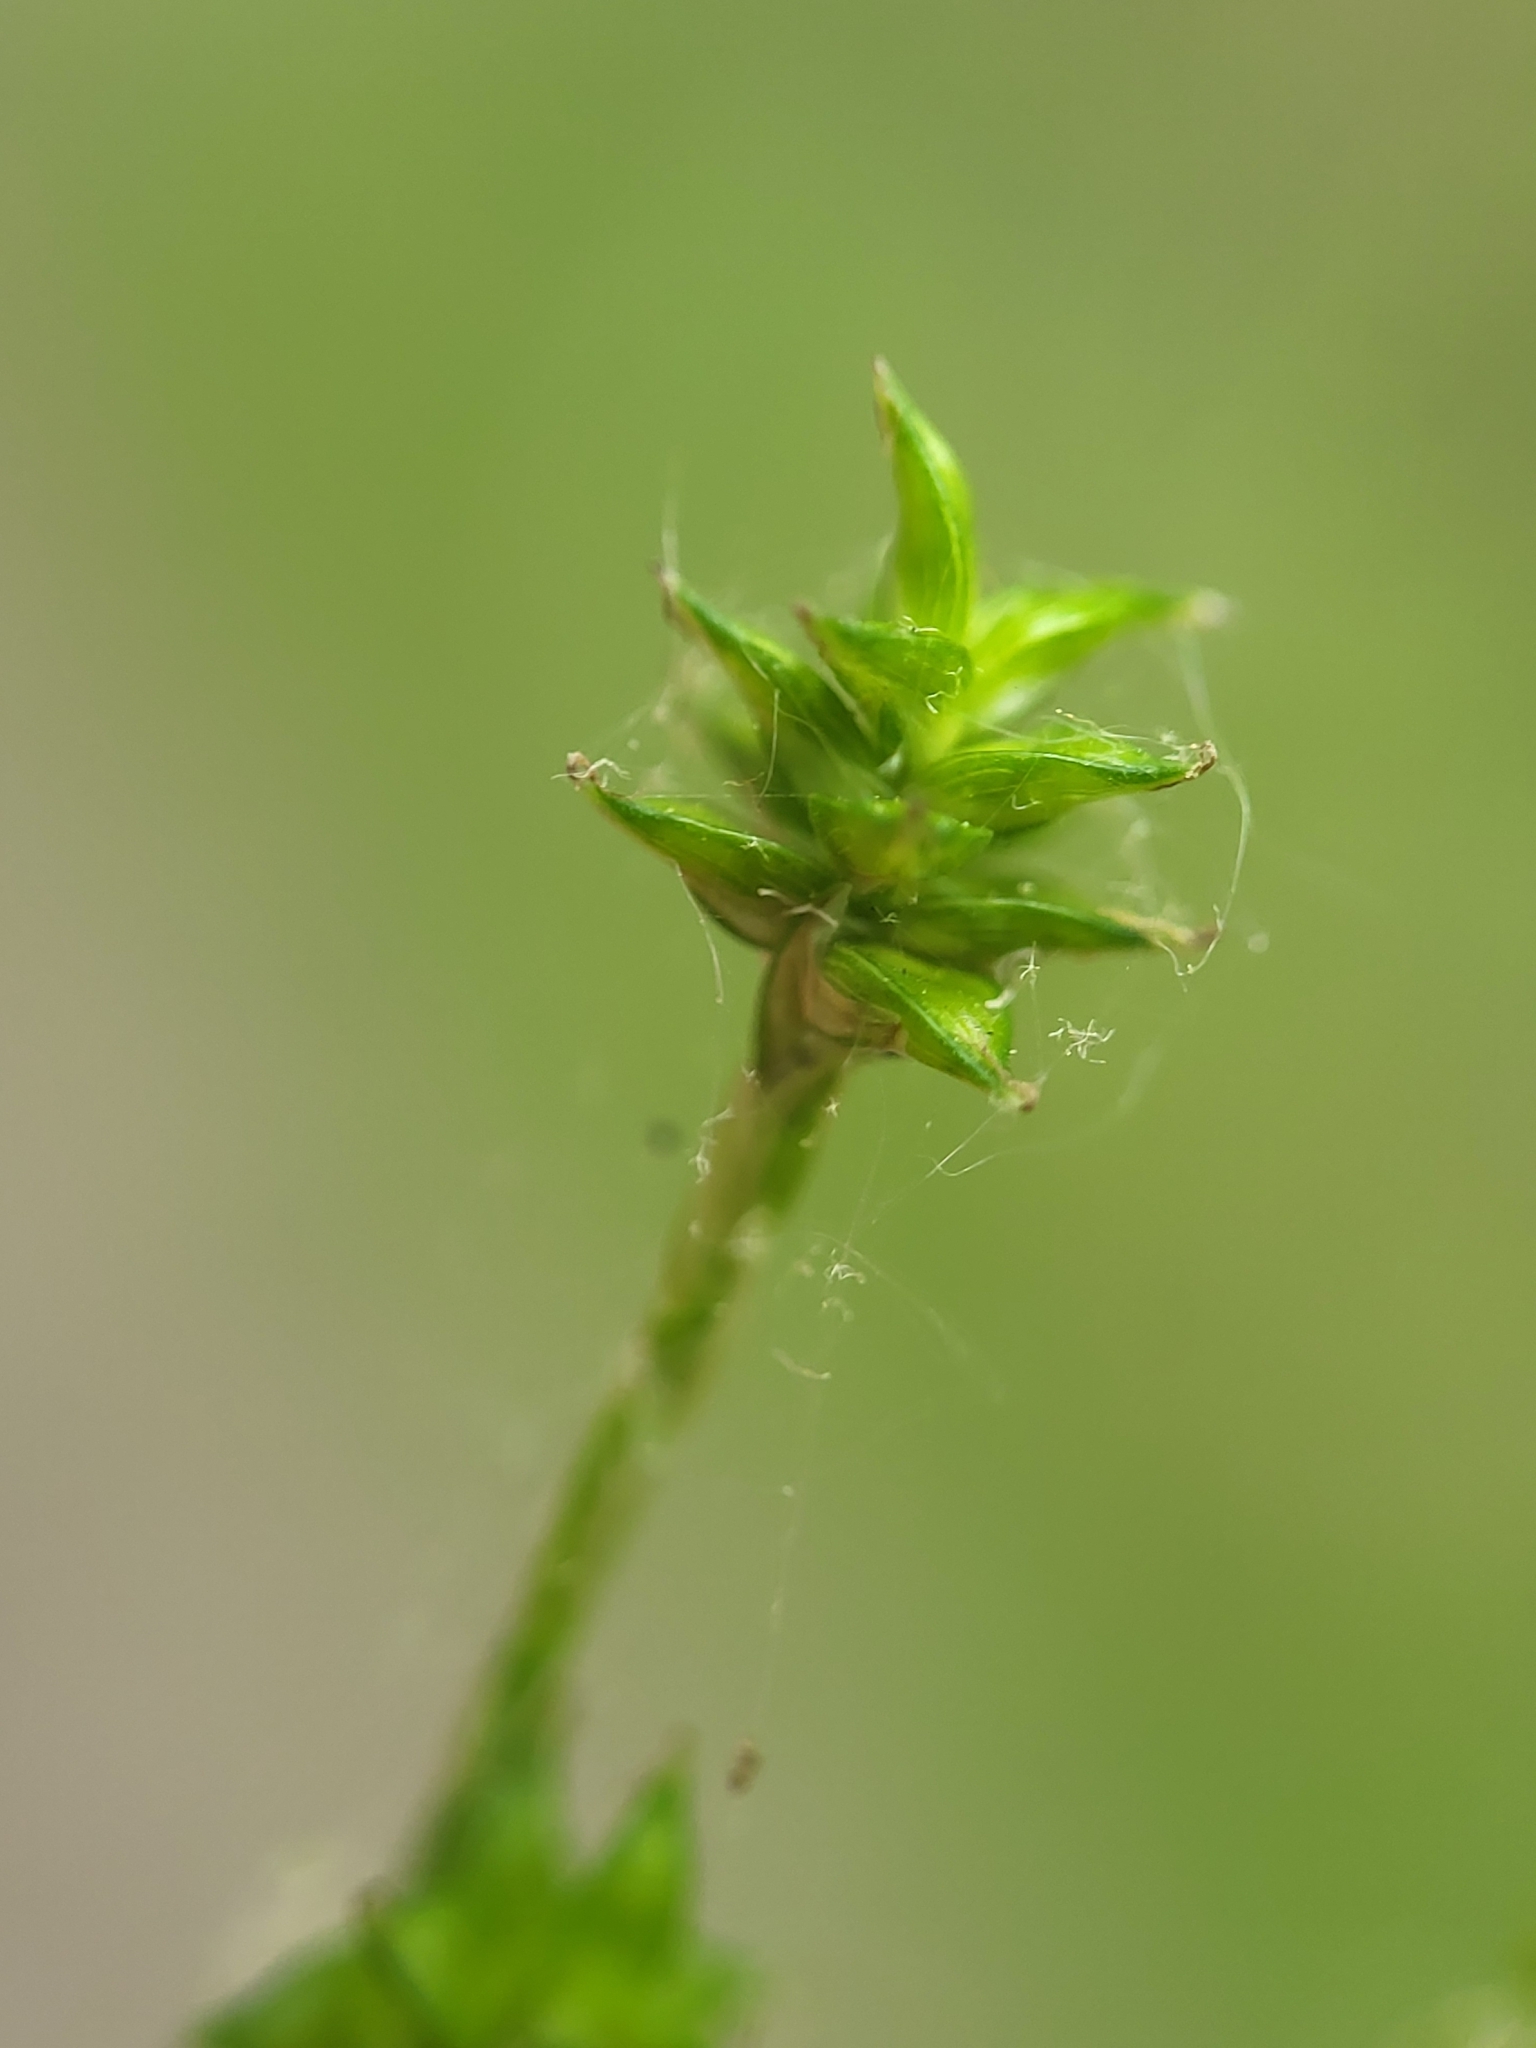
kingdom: Plantae
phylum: Tracheophyta
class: Liliopsida
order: Poales
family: Cyperaceae
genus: Carex
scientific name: Carex seorsa
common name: Swamp star sedge
